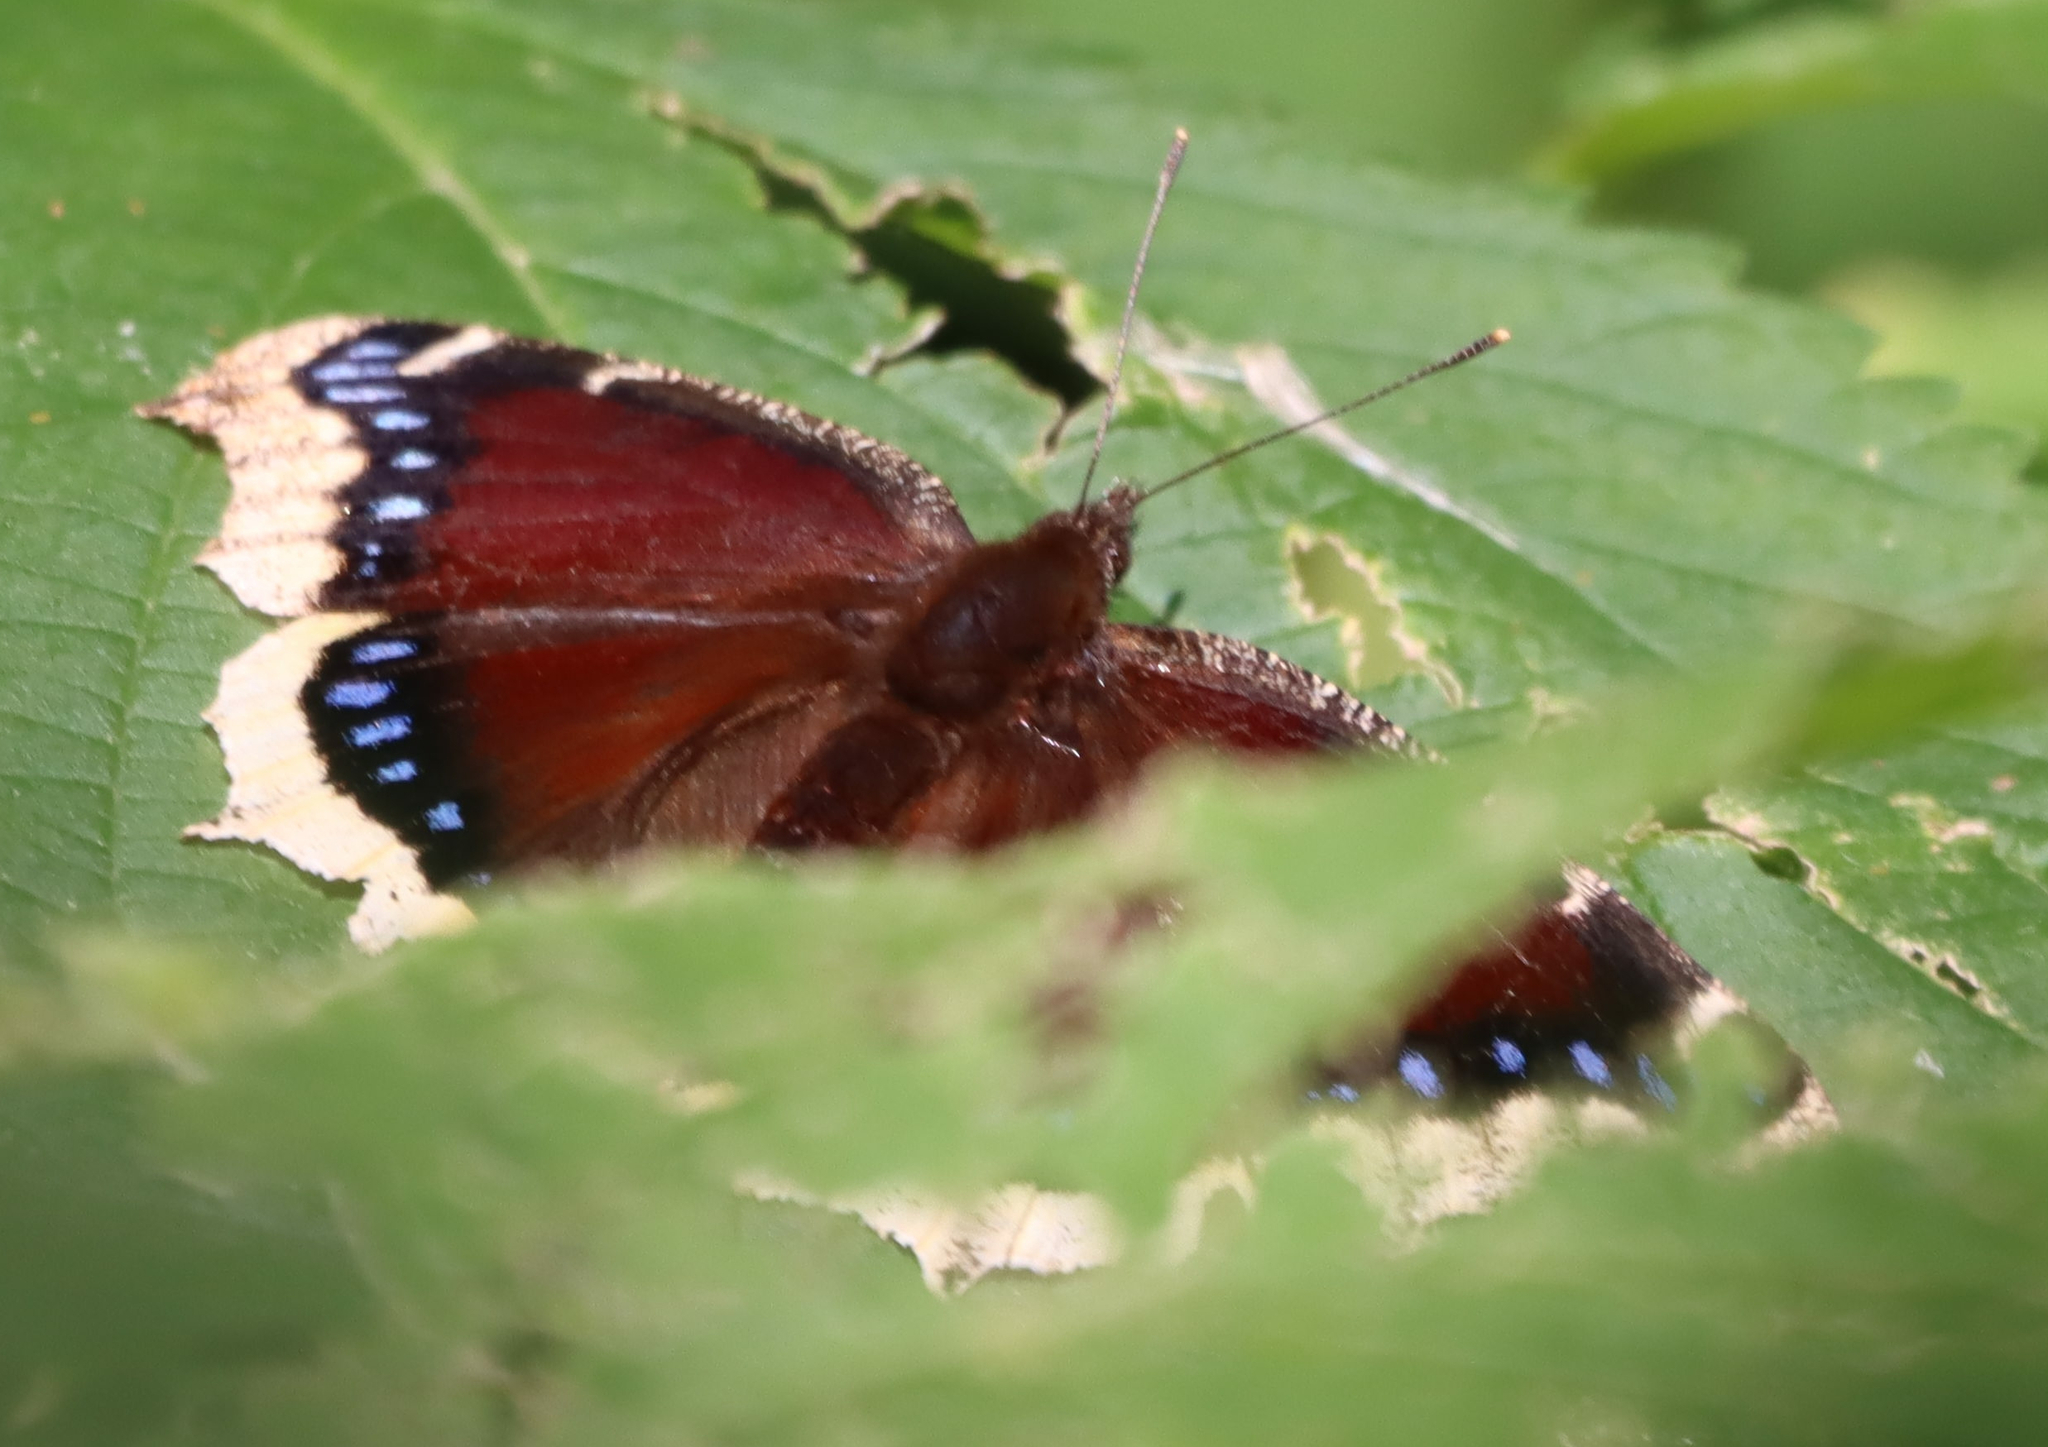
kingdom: Animalia
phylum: Arthropoda
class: Insecta
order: Lepidoptera
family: Nymphalidae
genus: Nymphalis
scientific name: Nymphalis antiopa
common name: Camberwell beauty
